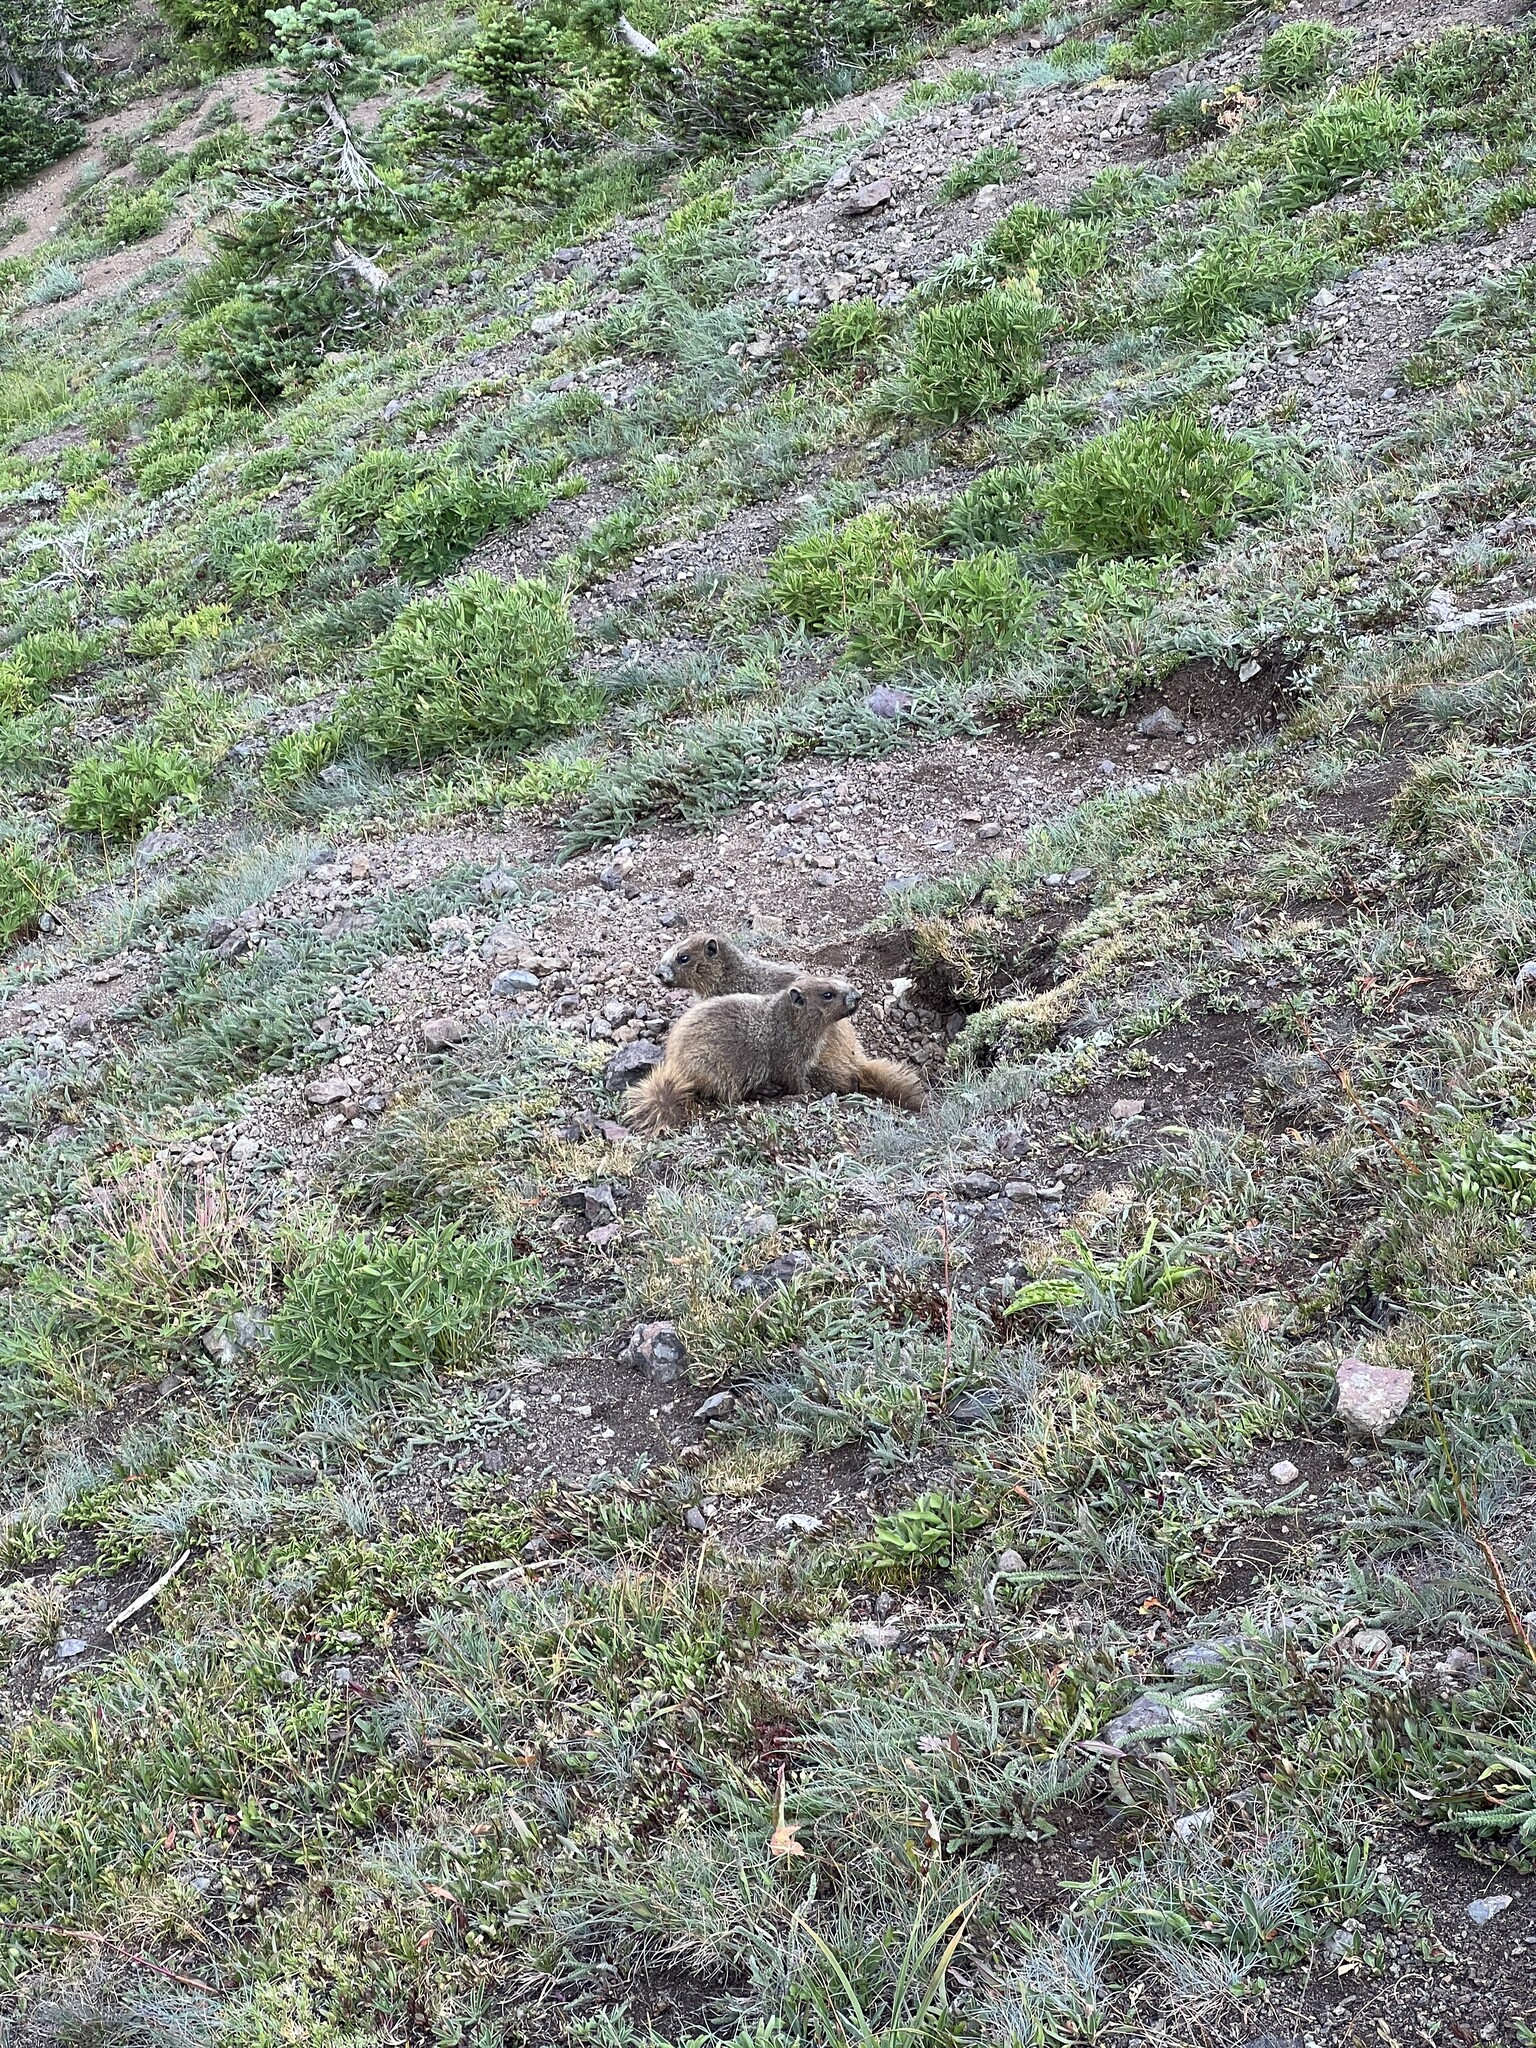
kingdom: Animalia
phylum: Chordata
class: Mammalia
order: Rodentia
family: Sciuridae
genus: Marmota
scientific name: Marmota olympus
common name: Olympic marmot
